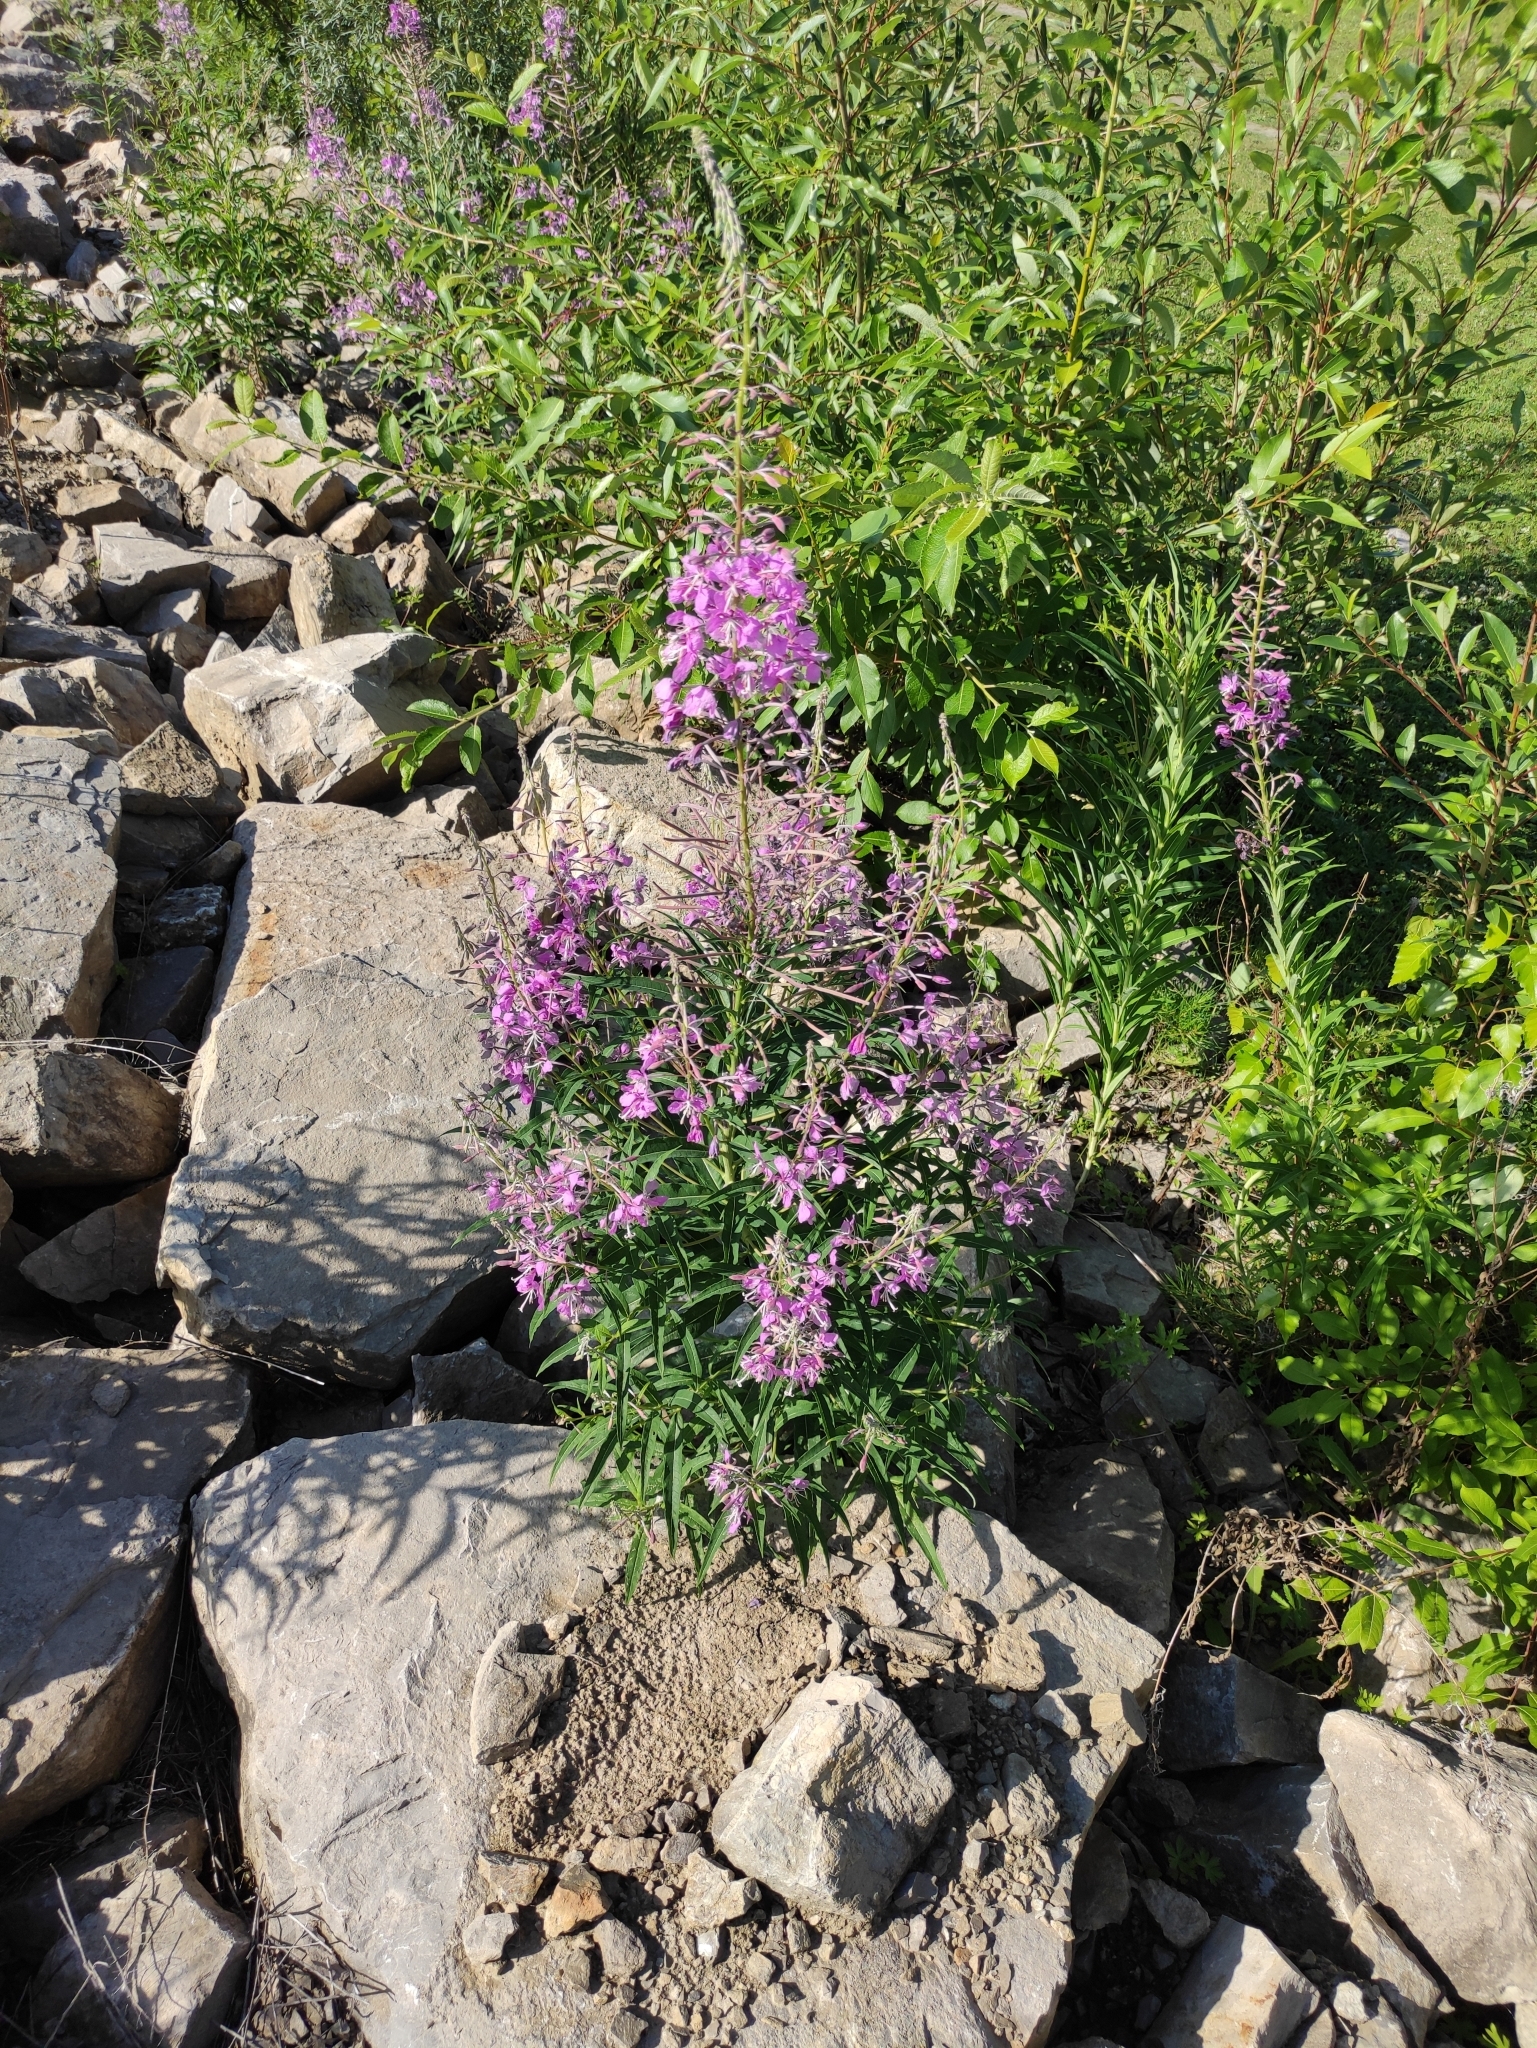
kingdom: Plantae
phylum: Tracheophyta
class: Magnoliopsida
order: Myrtales
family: Onagraceae
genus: Chamaenerion
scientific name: Chamaenerion angustifolium
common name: Fireweed
